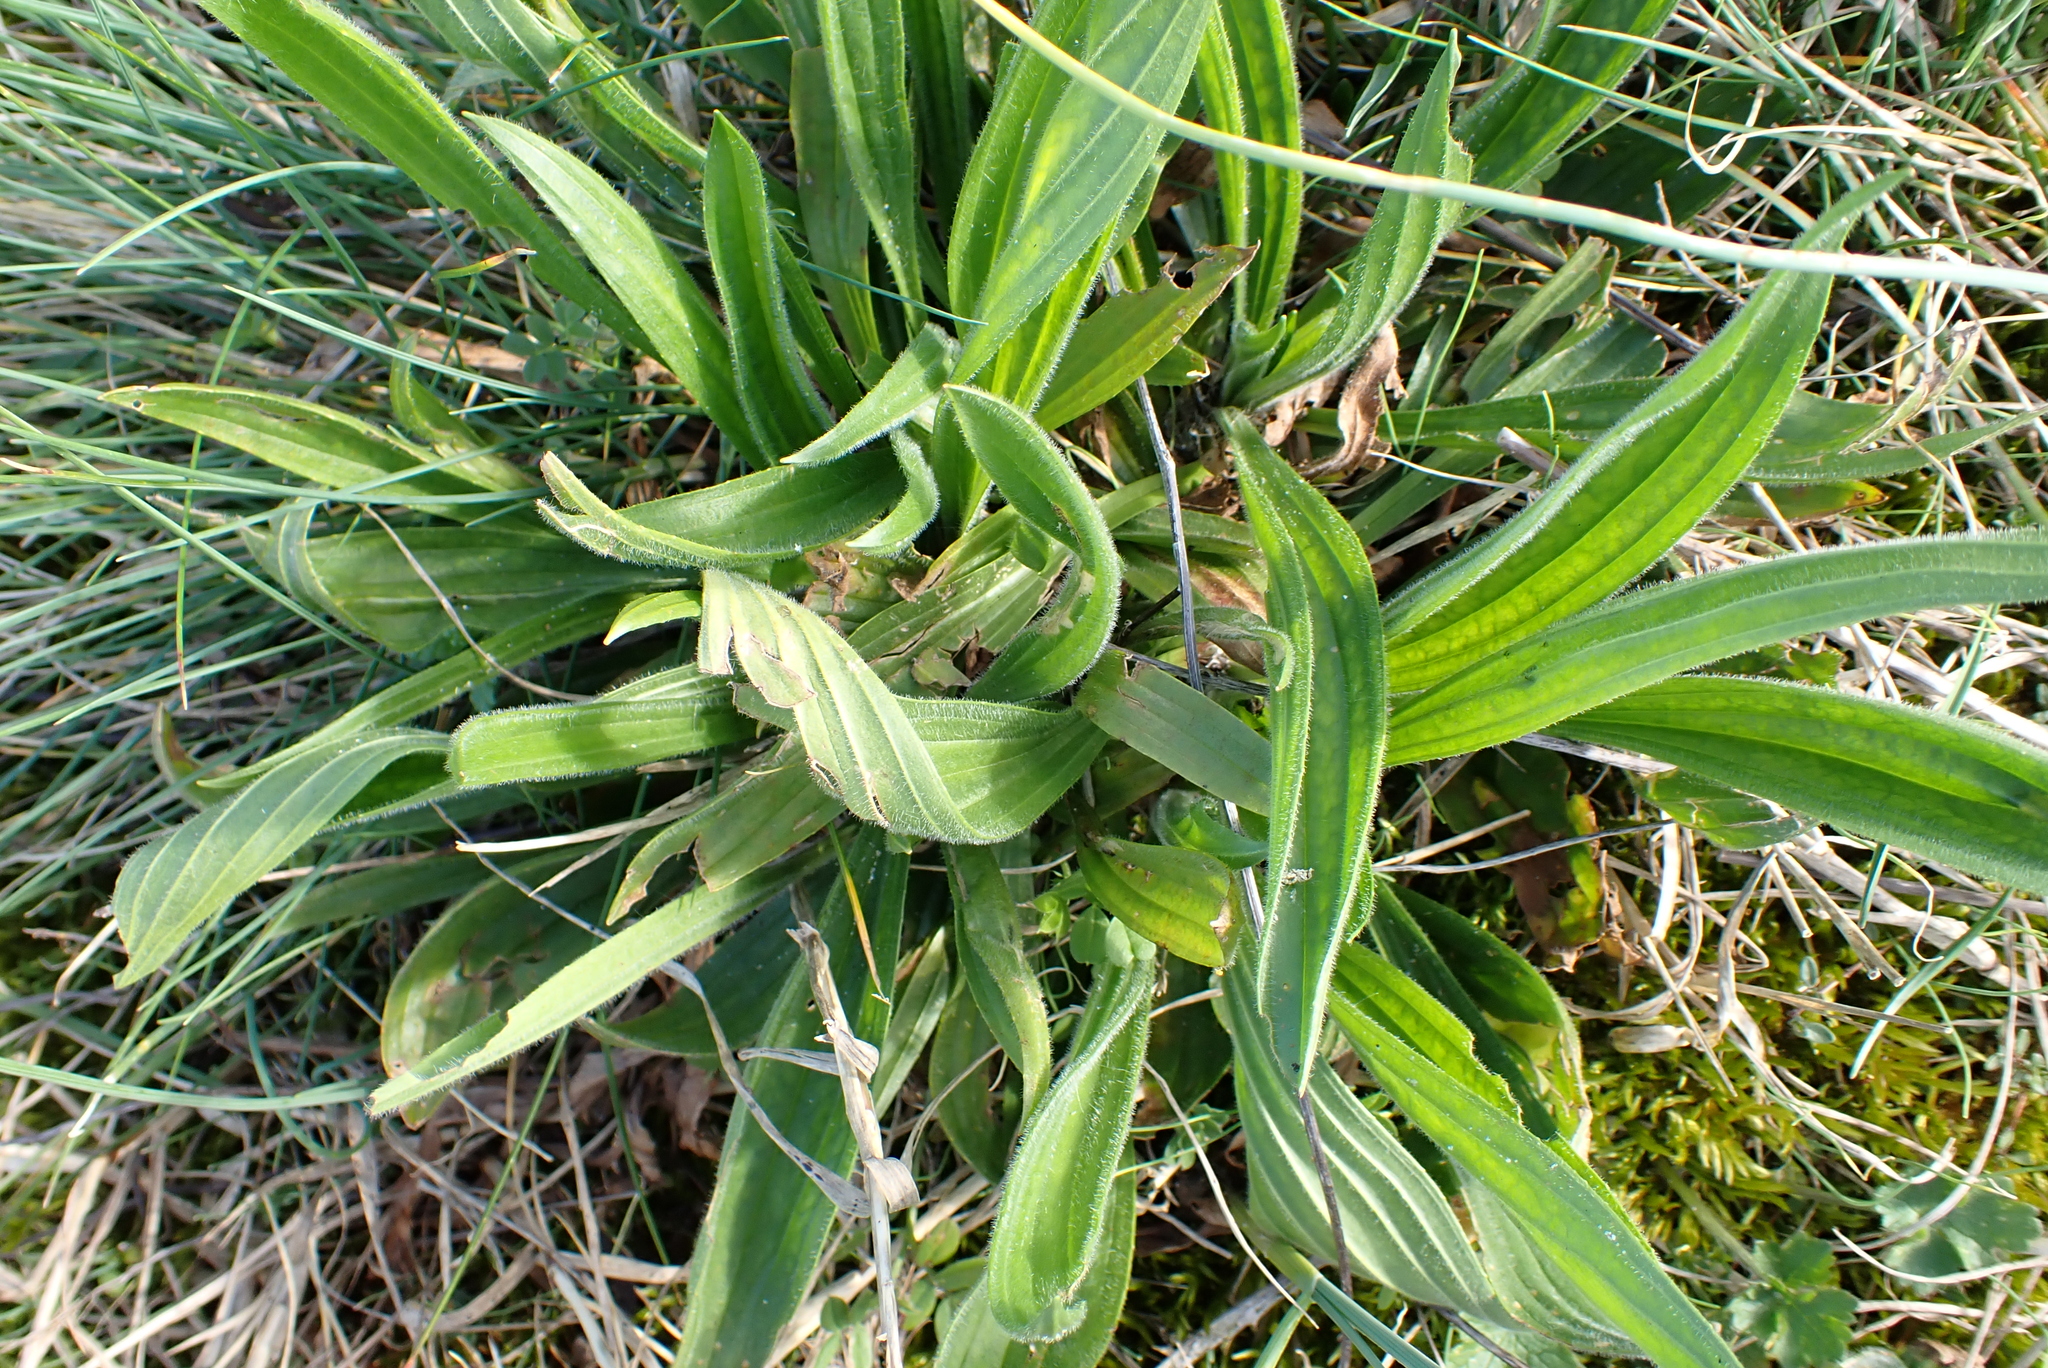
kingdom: Plantae
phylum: Tracheophyta
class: Magnoliopsida
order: Lamiales
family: Plantaginaceae
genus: Plantago
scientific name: Plantago lanceolata
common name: Ribwort plantain
